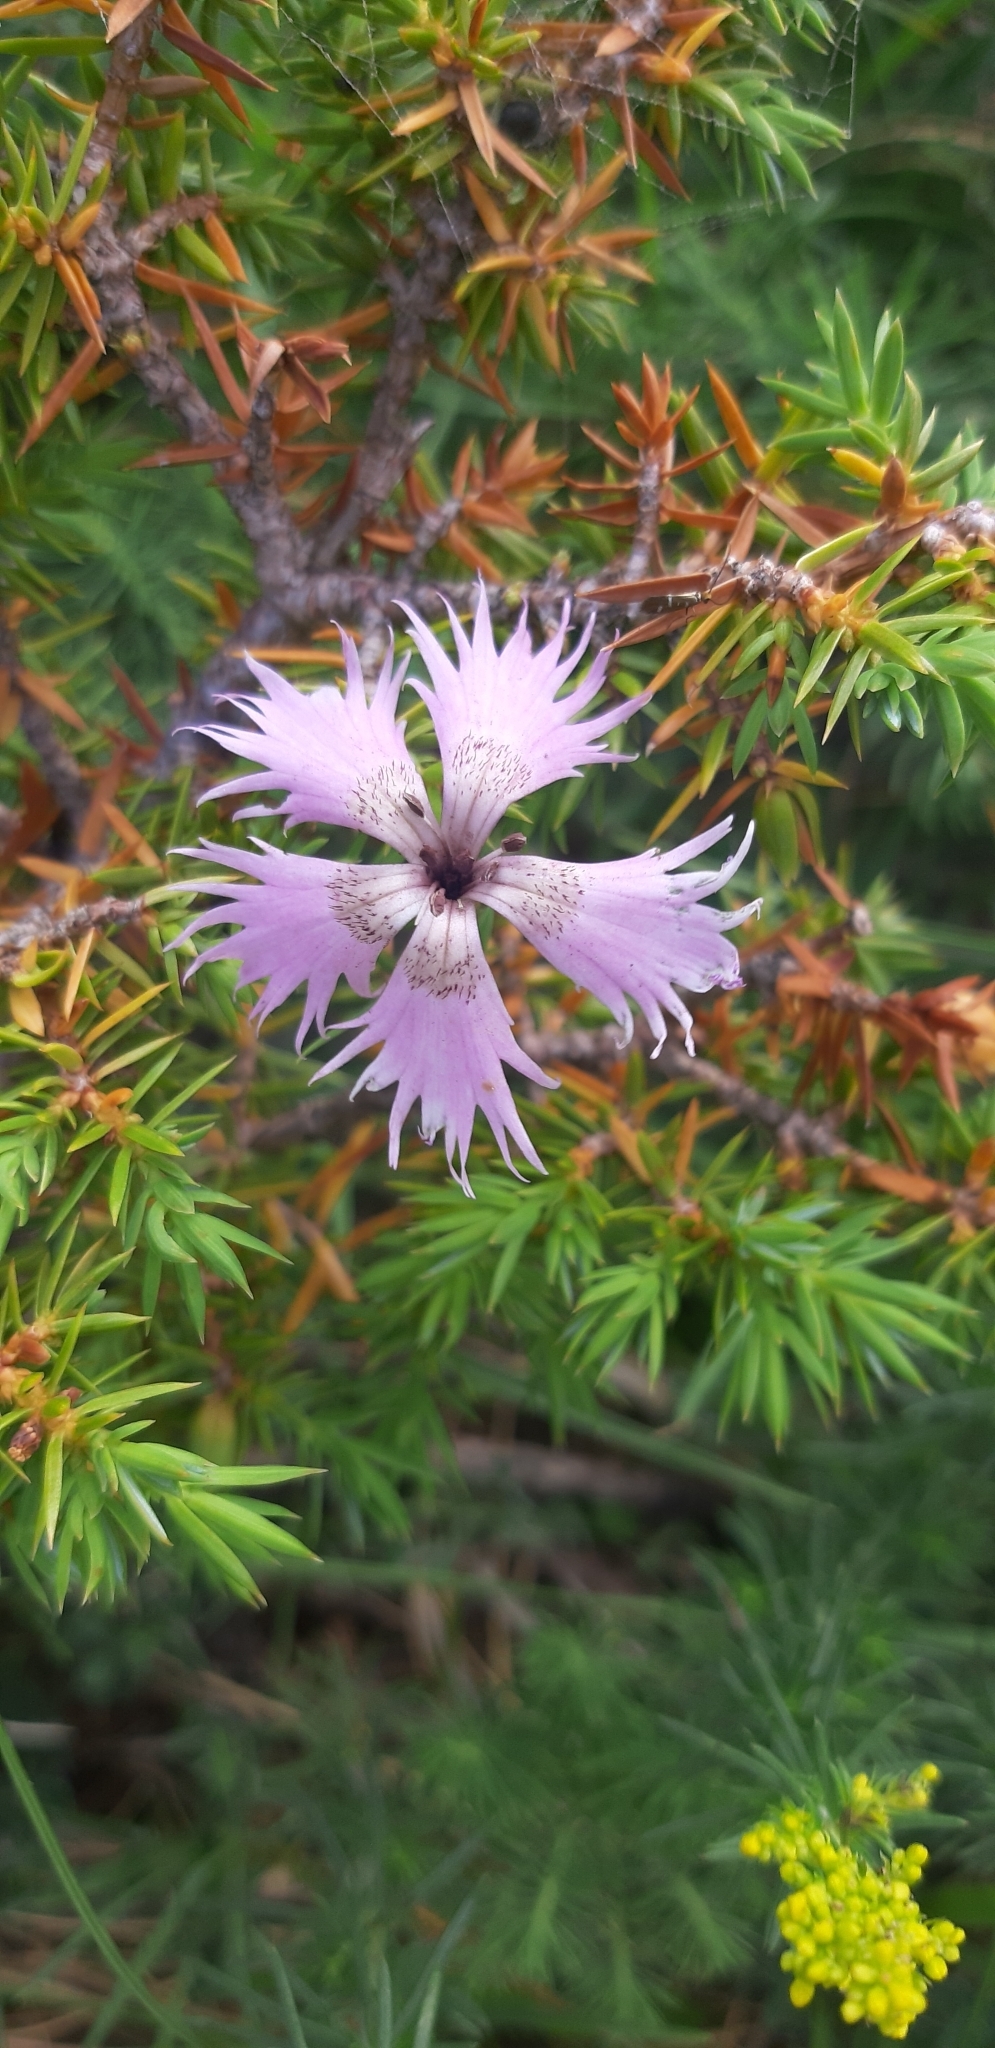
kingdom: Plantae
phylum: Tracheophyta
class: Magnoliopsida
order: Caryophyllales
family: Caryophyllaceae
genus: Dianthus
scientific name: Dianthus hyssopifolius
